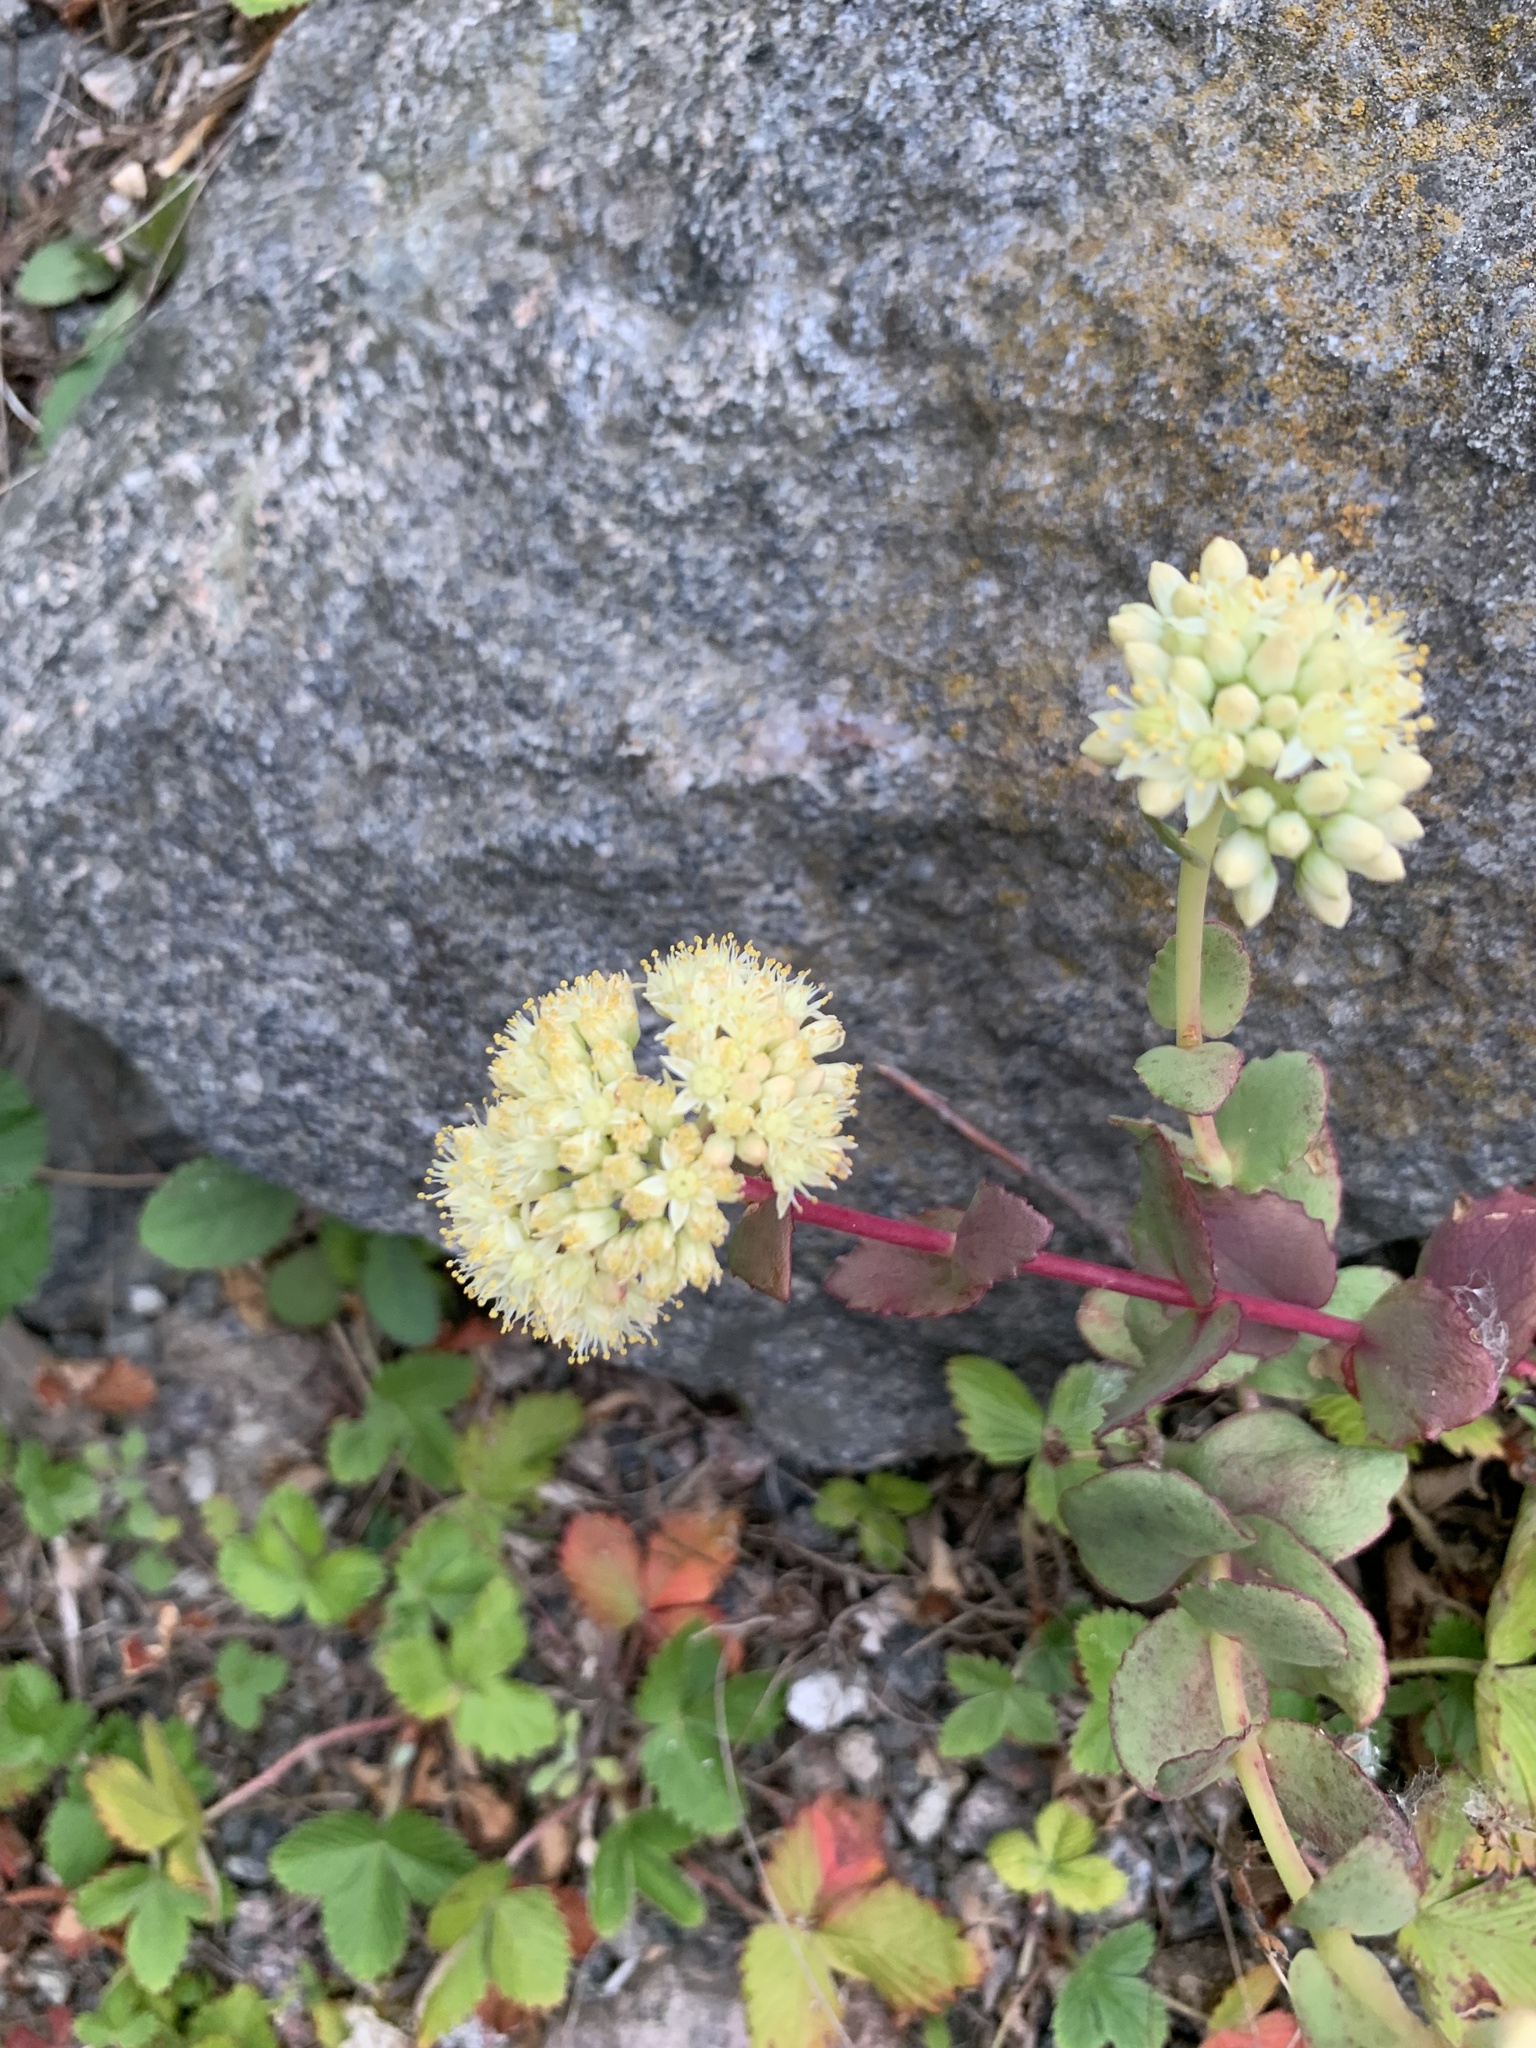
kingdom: Plantae
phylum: Tracheophyta
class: Magnoliopsida
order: Saxifragales
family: Crassulaceae
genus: Hylotelephium
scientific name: Hylotelephium maximum
